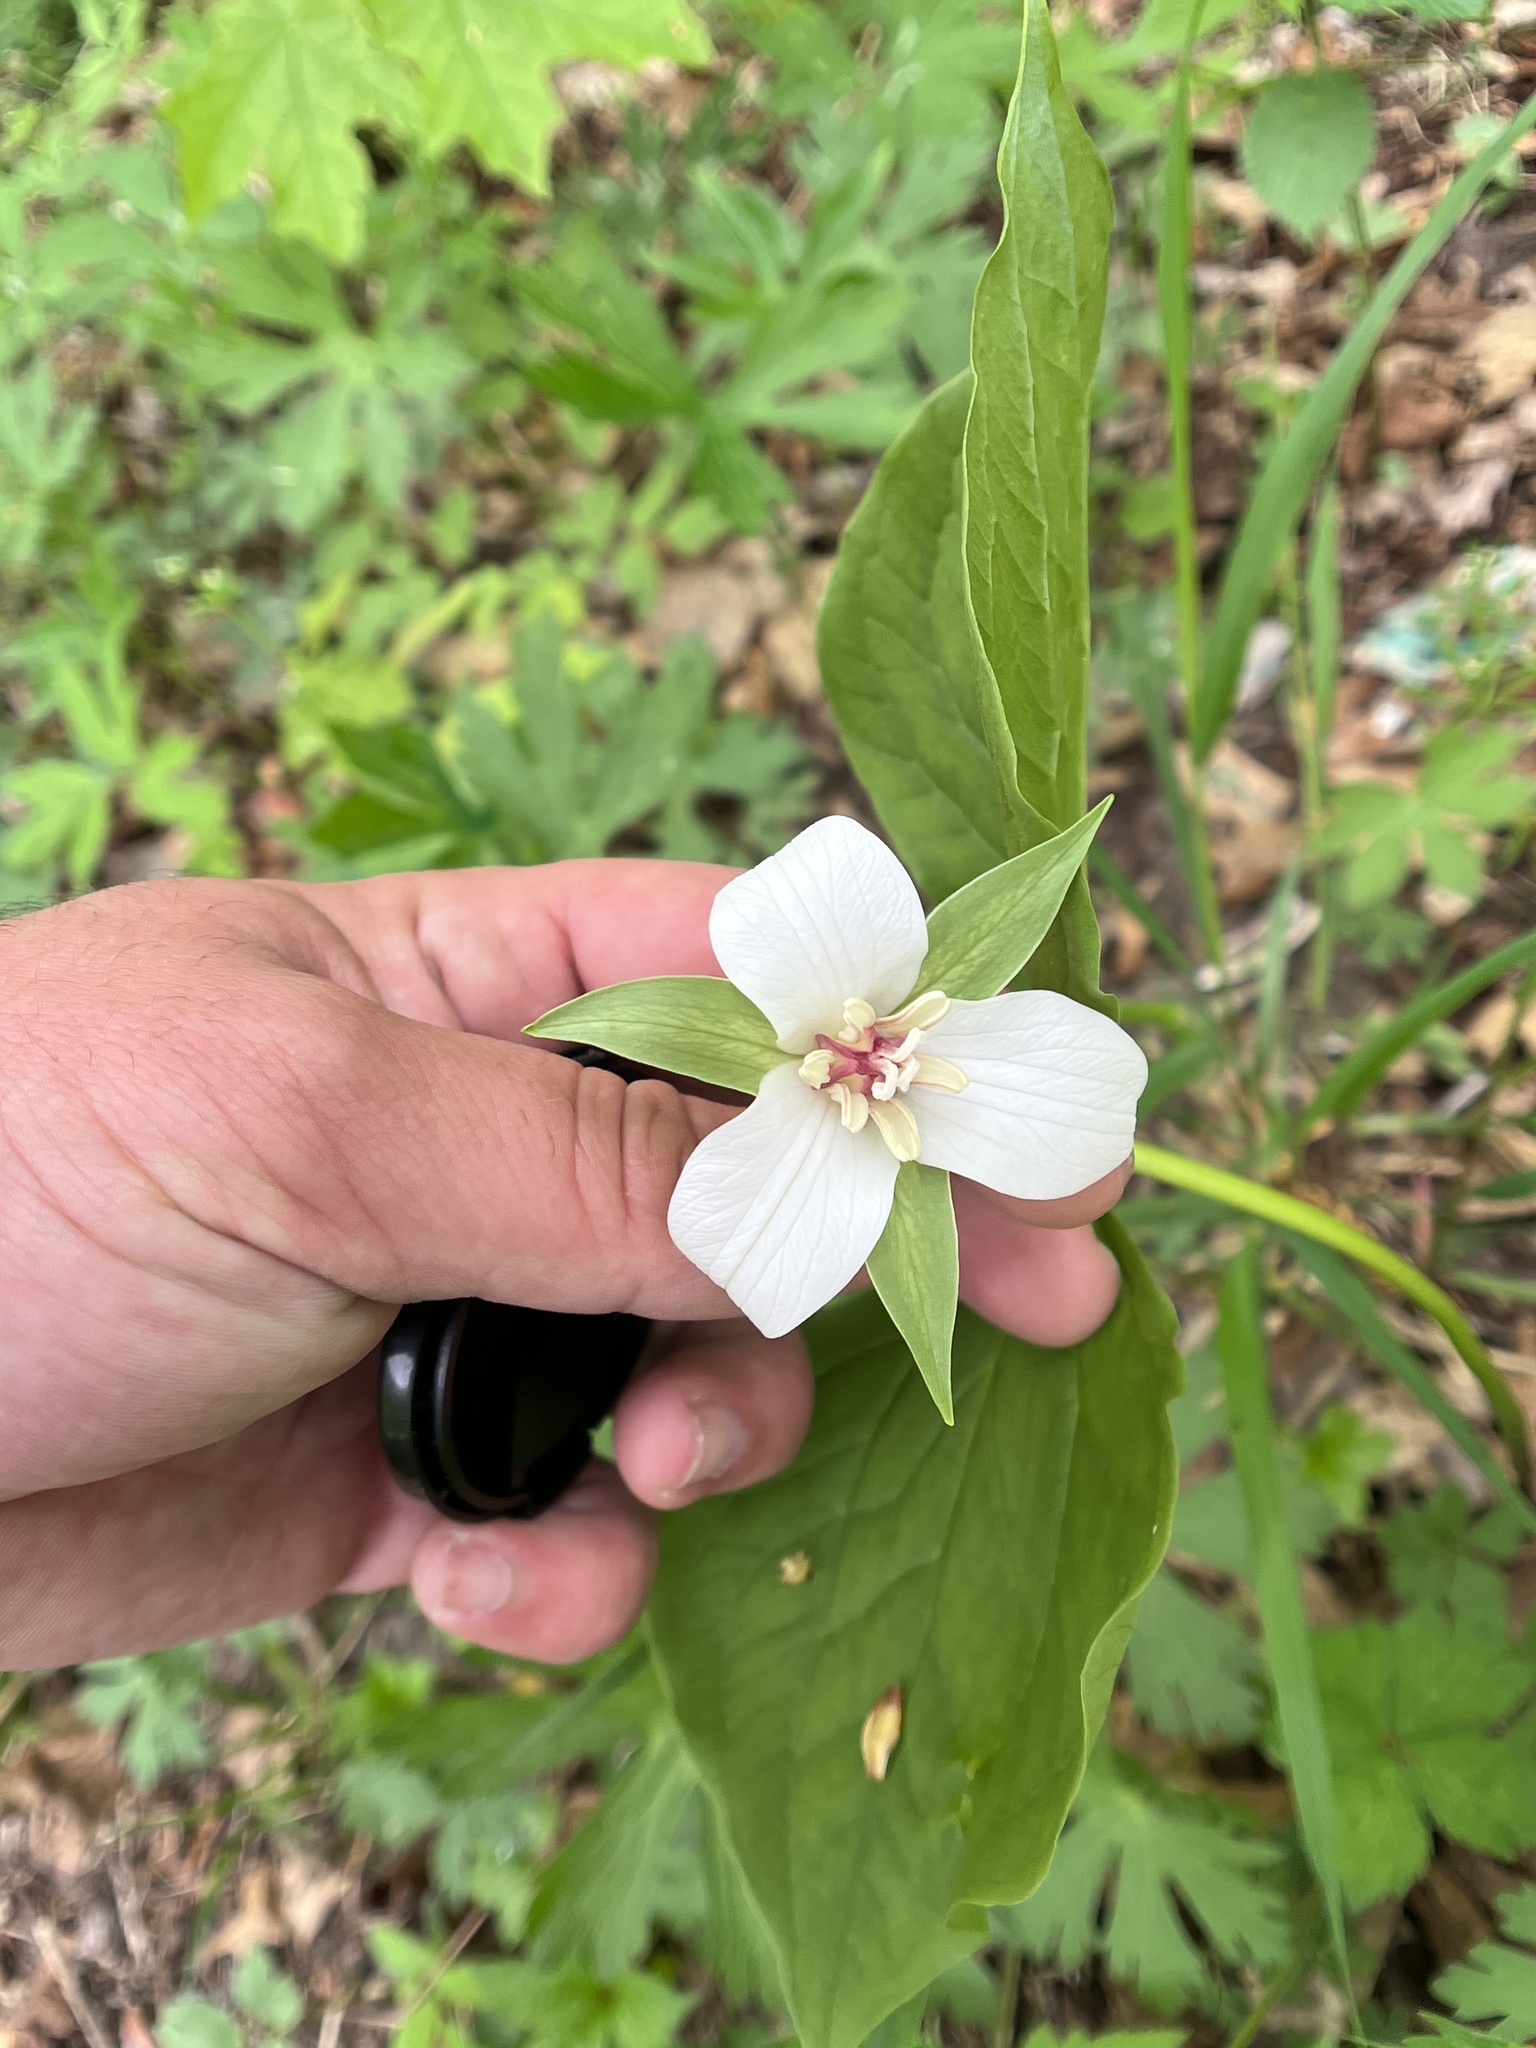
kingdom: Plantae
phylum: Tracheophyta
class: Liliopsida
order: Liliales
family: Melanthiaceae
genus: Trillium
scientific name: Trillium flexipes
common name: Drooping trillium
